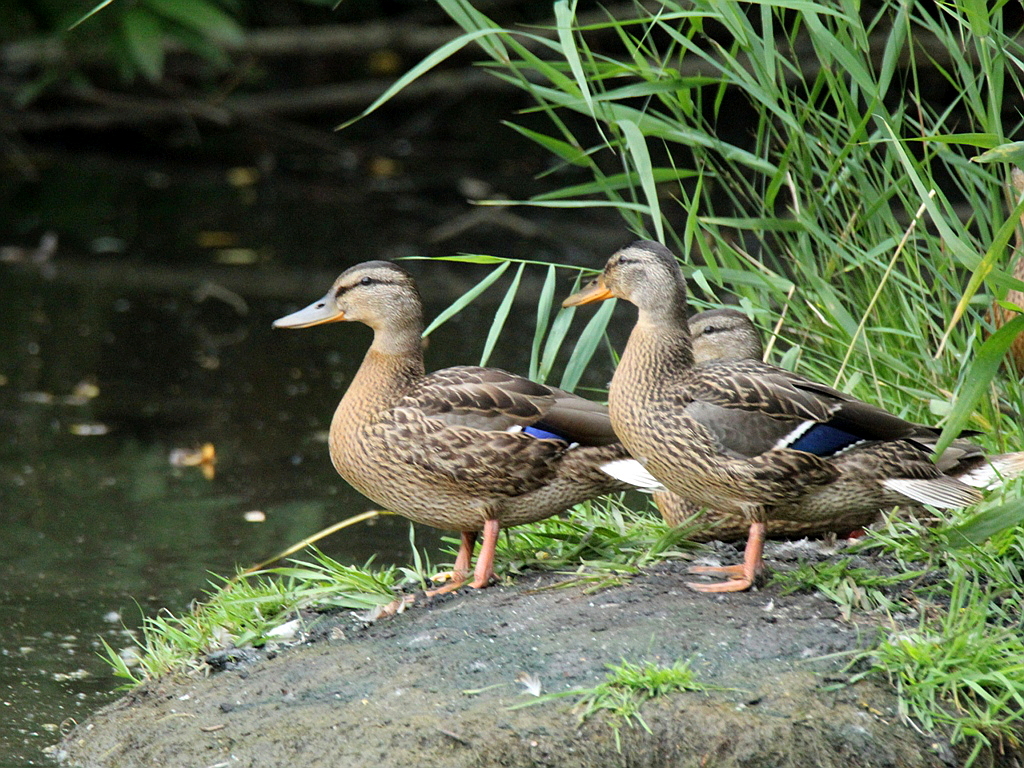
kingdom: Animalia
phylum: Chordata
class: Aves
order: Anseriformes
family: Anatidae
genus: Anas
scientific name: Anas platyrhynchos
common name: Mallard
